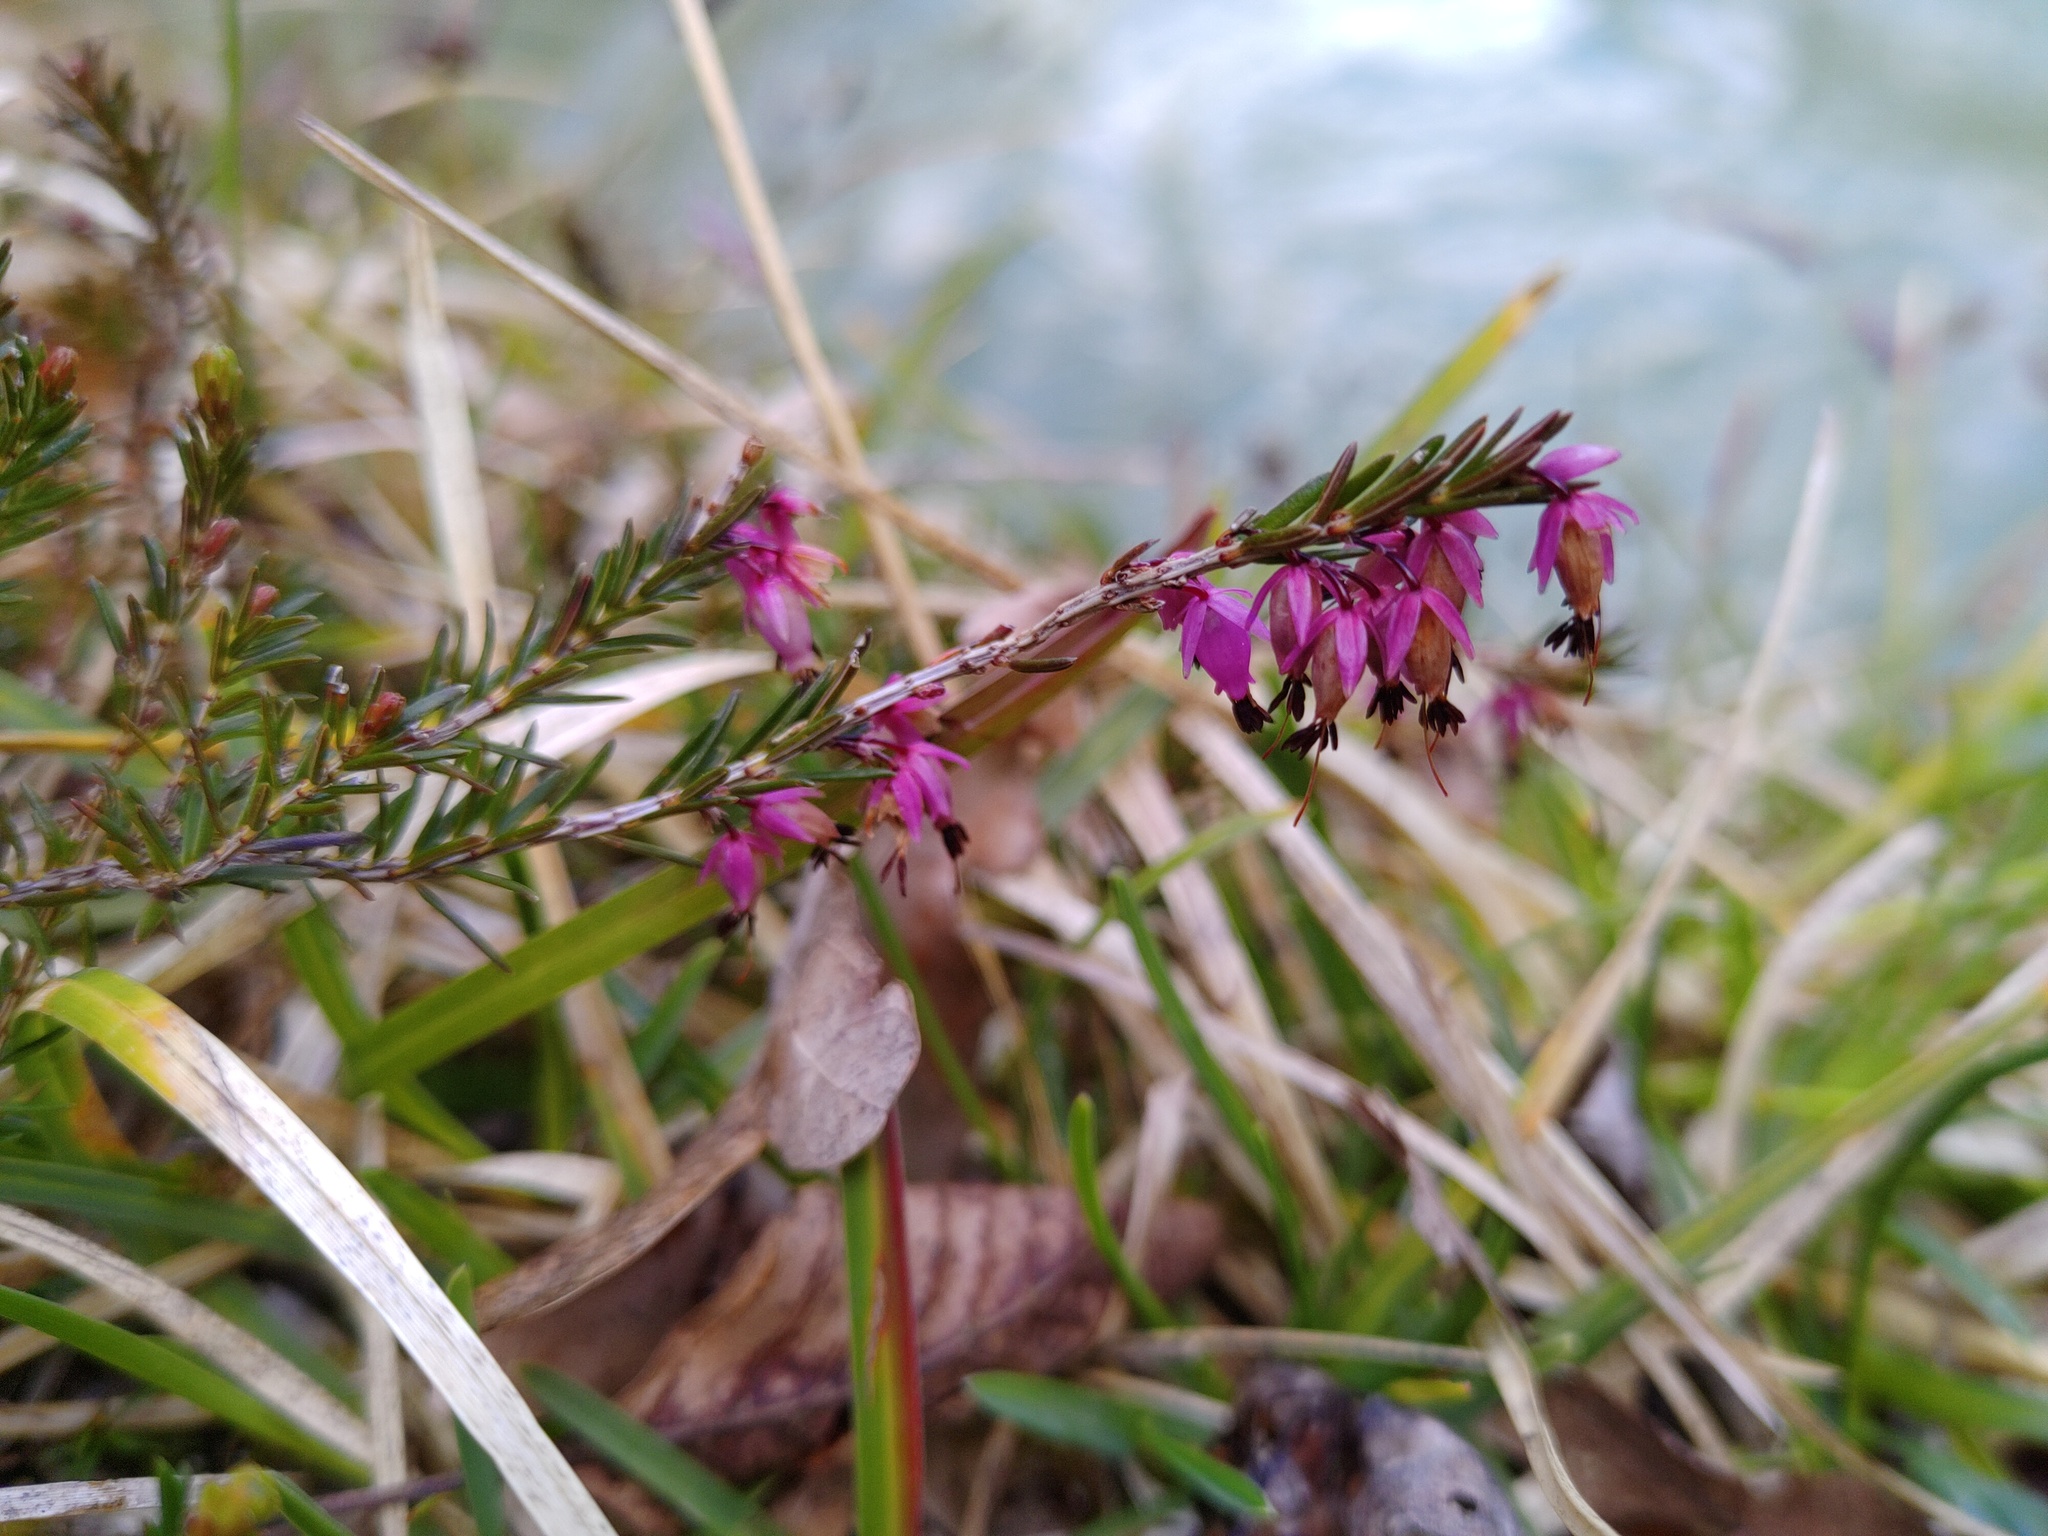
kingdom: Plantae
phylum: Tracheophyta
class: Magnoliopsida
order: Ericales
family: Ericaceae
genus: Erica
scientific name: Erica carnea
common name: Winter heath
